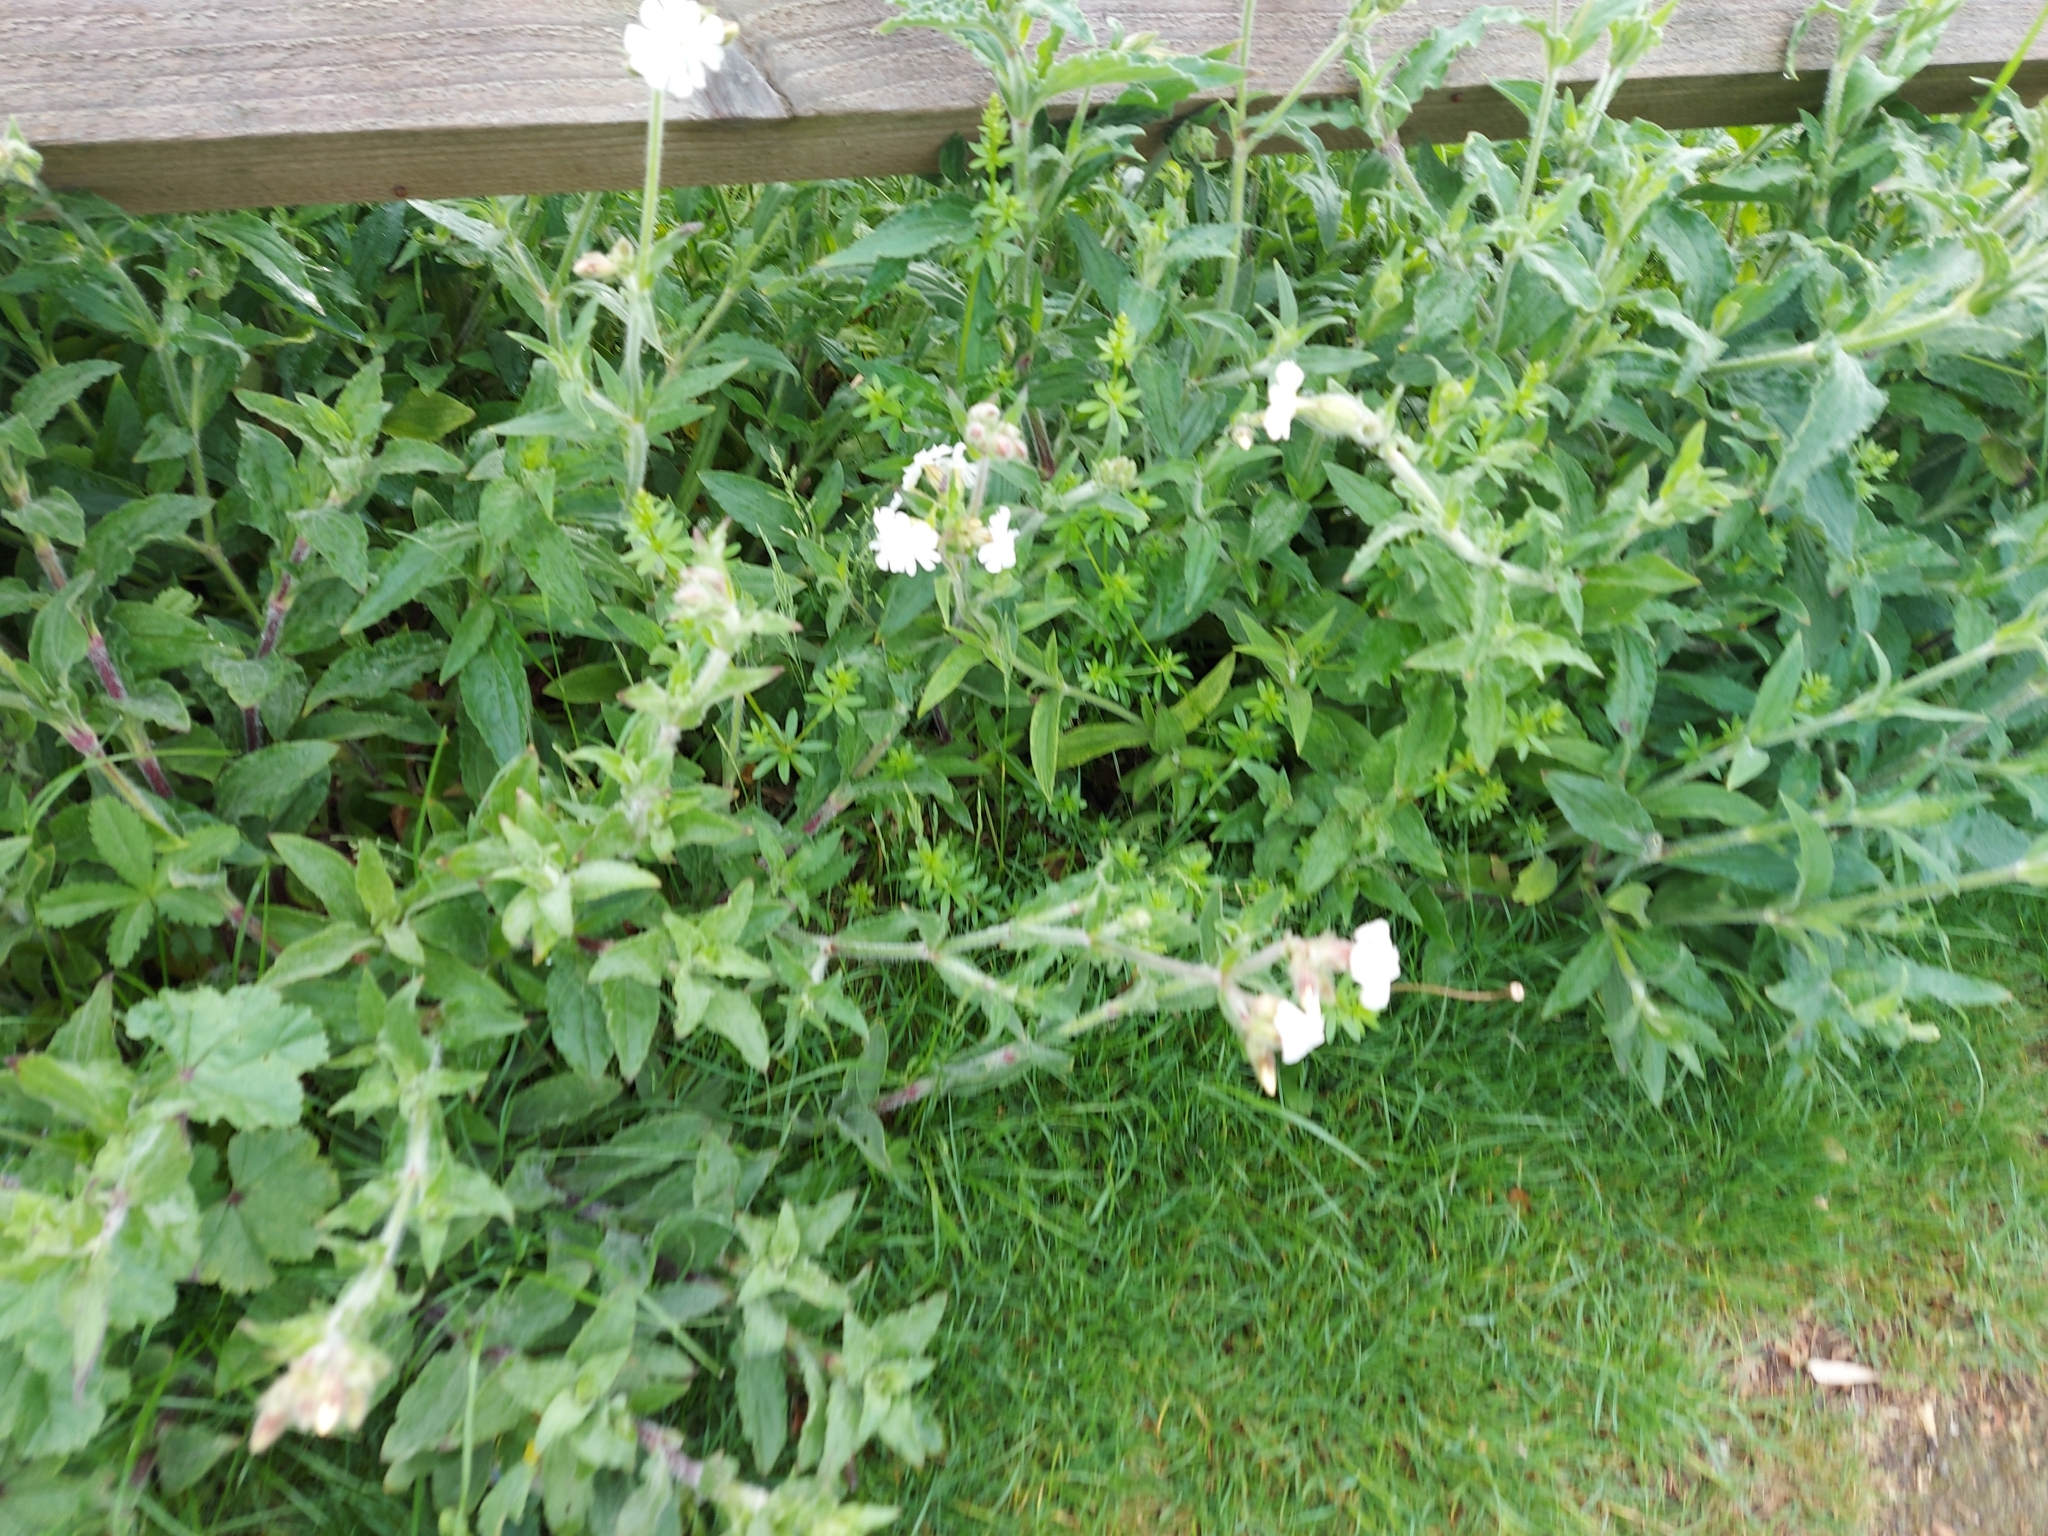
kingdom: Plantae
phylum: Tracheophyta
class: Magnoliopsida
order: Caryophyllales
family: Caryophyllaceae
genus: Silene
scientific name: Silene latifolia
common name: White campion
